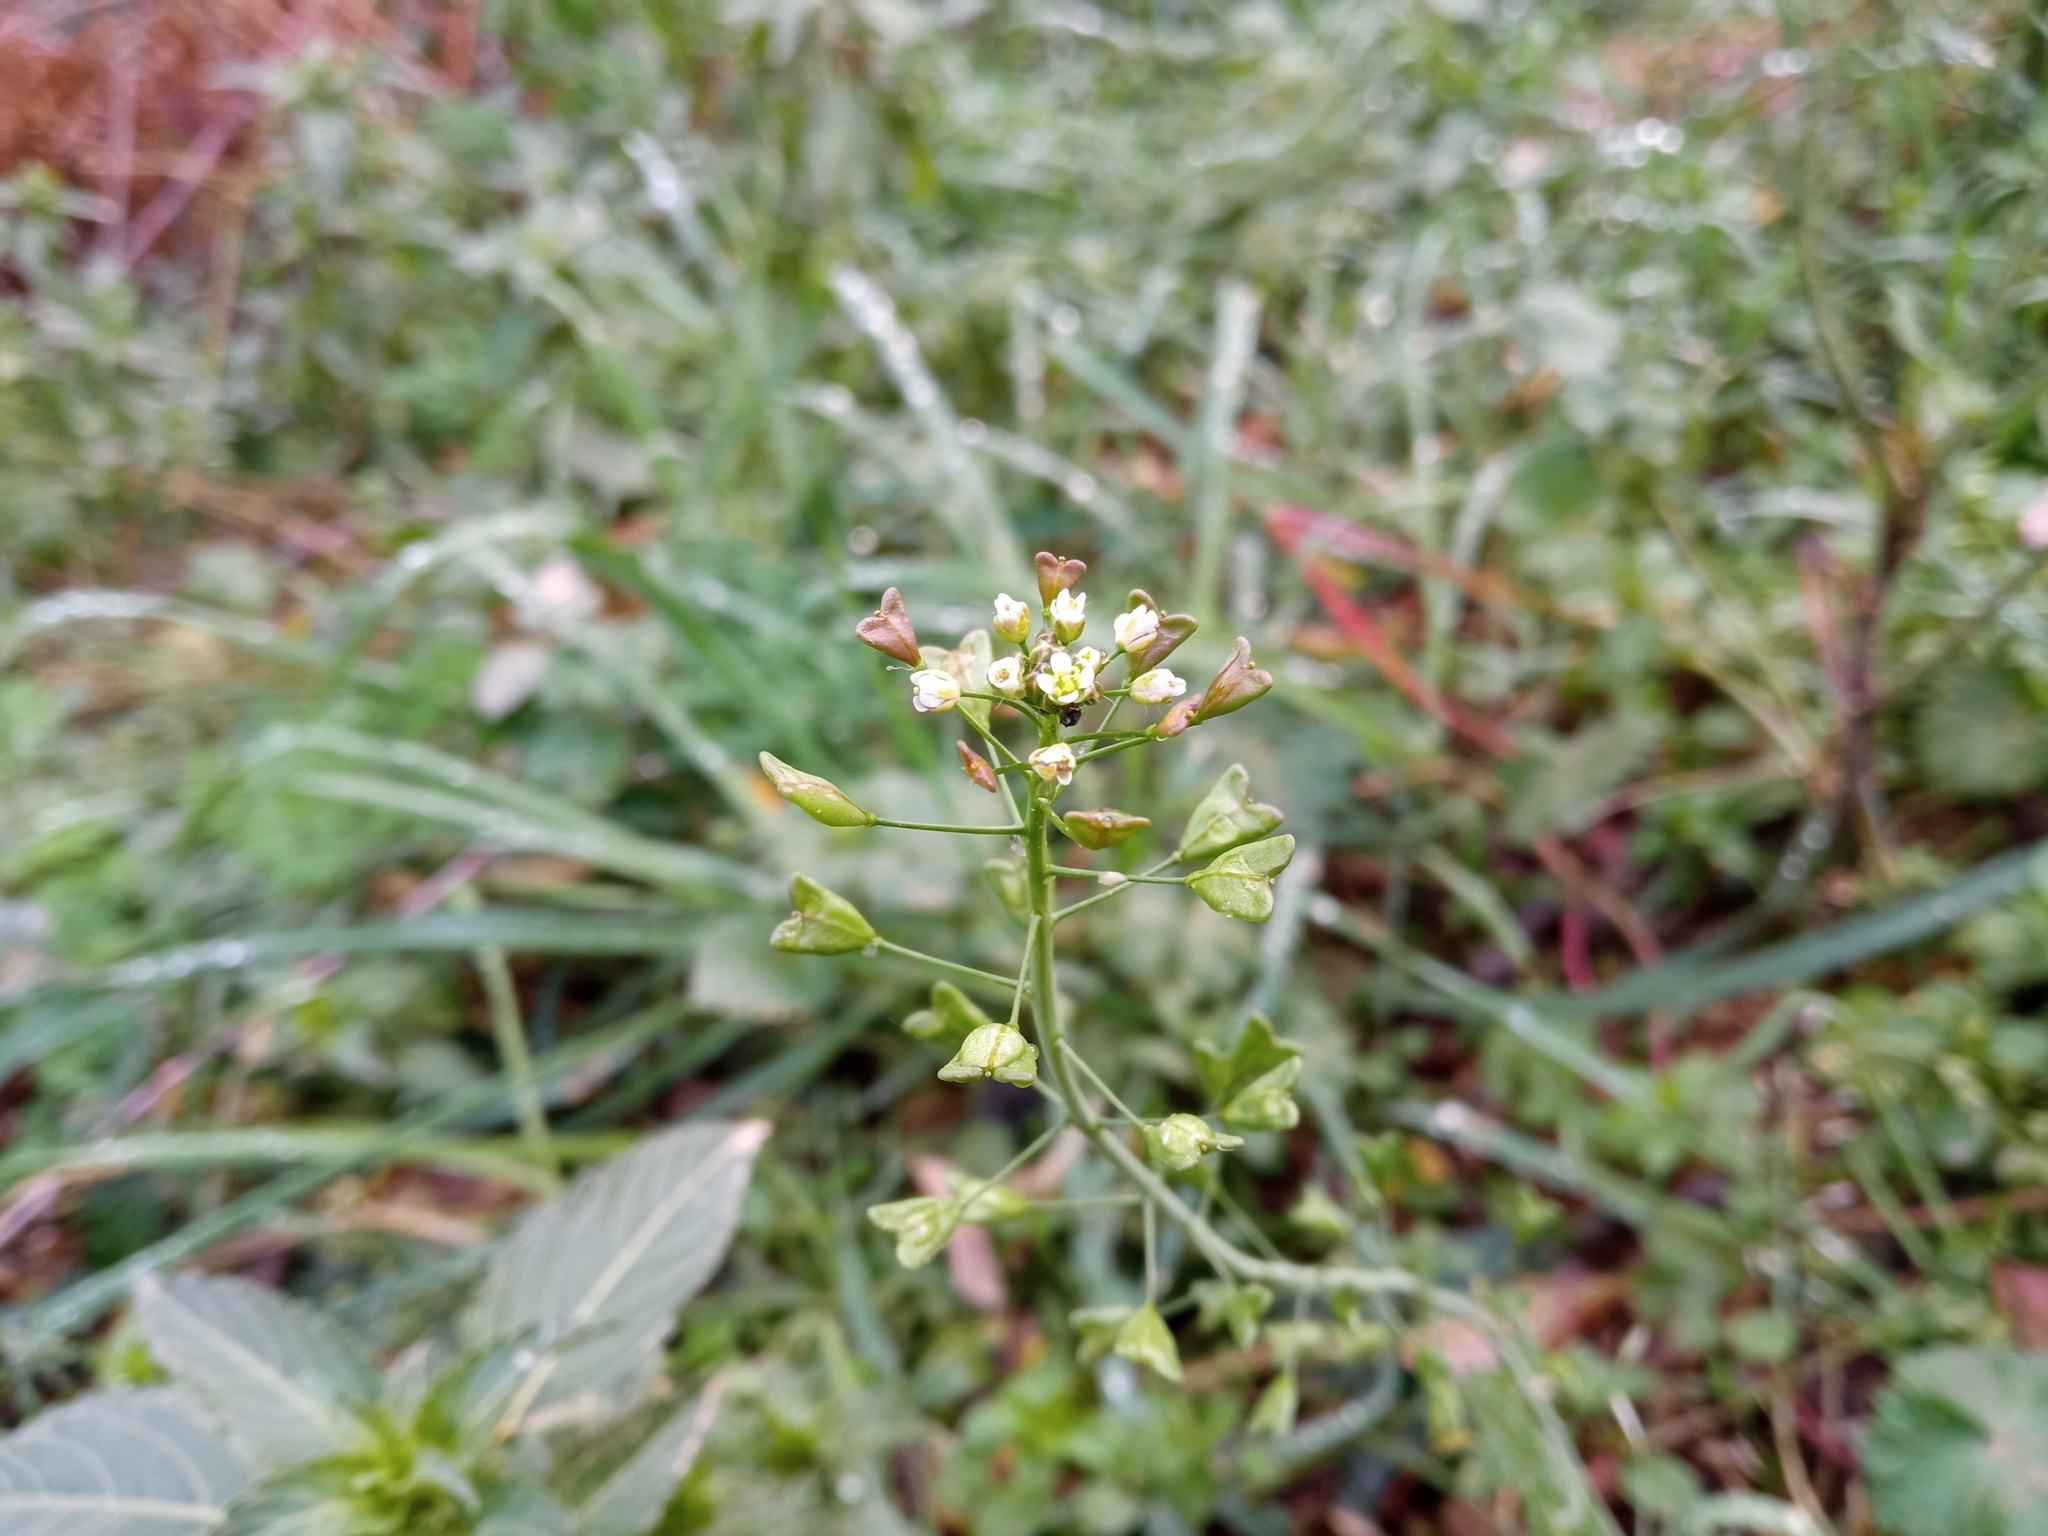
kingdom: Plantae
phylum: Tracheophyta
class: Magnoliopsida
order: Brassicales
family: Brassicaceae
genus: Capsella
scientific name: Capsella bursa-pastoris
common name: Shepherd's purse
